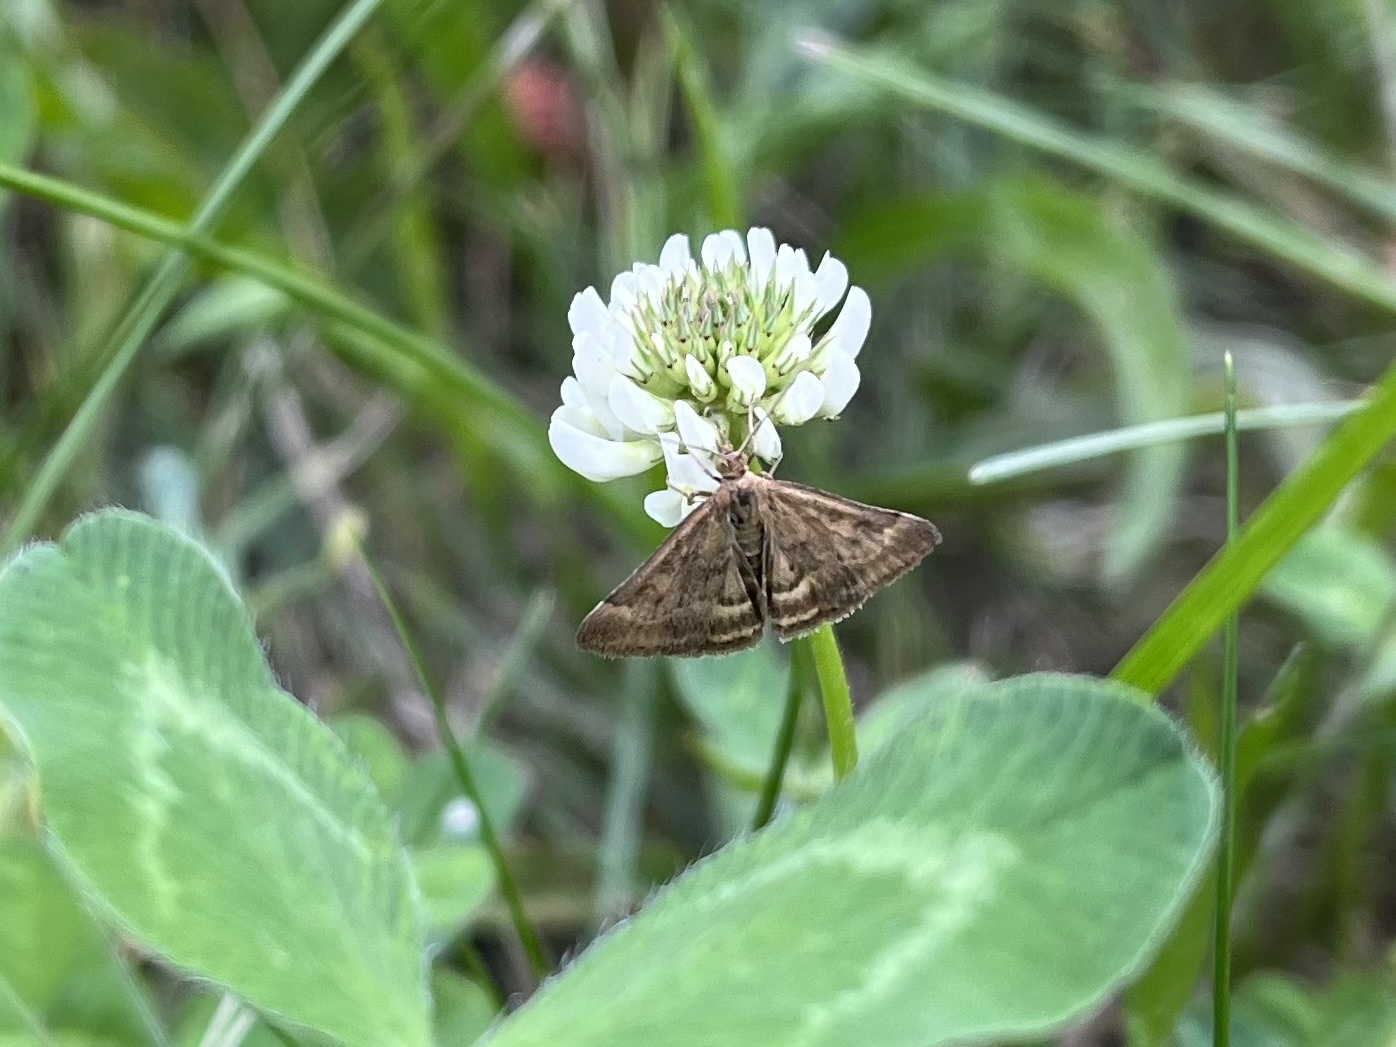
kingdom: Animalia
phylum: Arthropoda
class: Insecta
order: Lepidoptera
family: Crambidae
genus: Pyrausta
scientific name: Pyrausta despicata
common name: Straw-barred pearl
